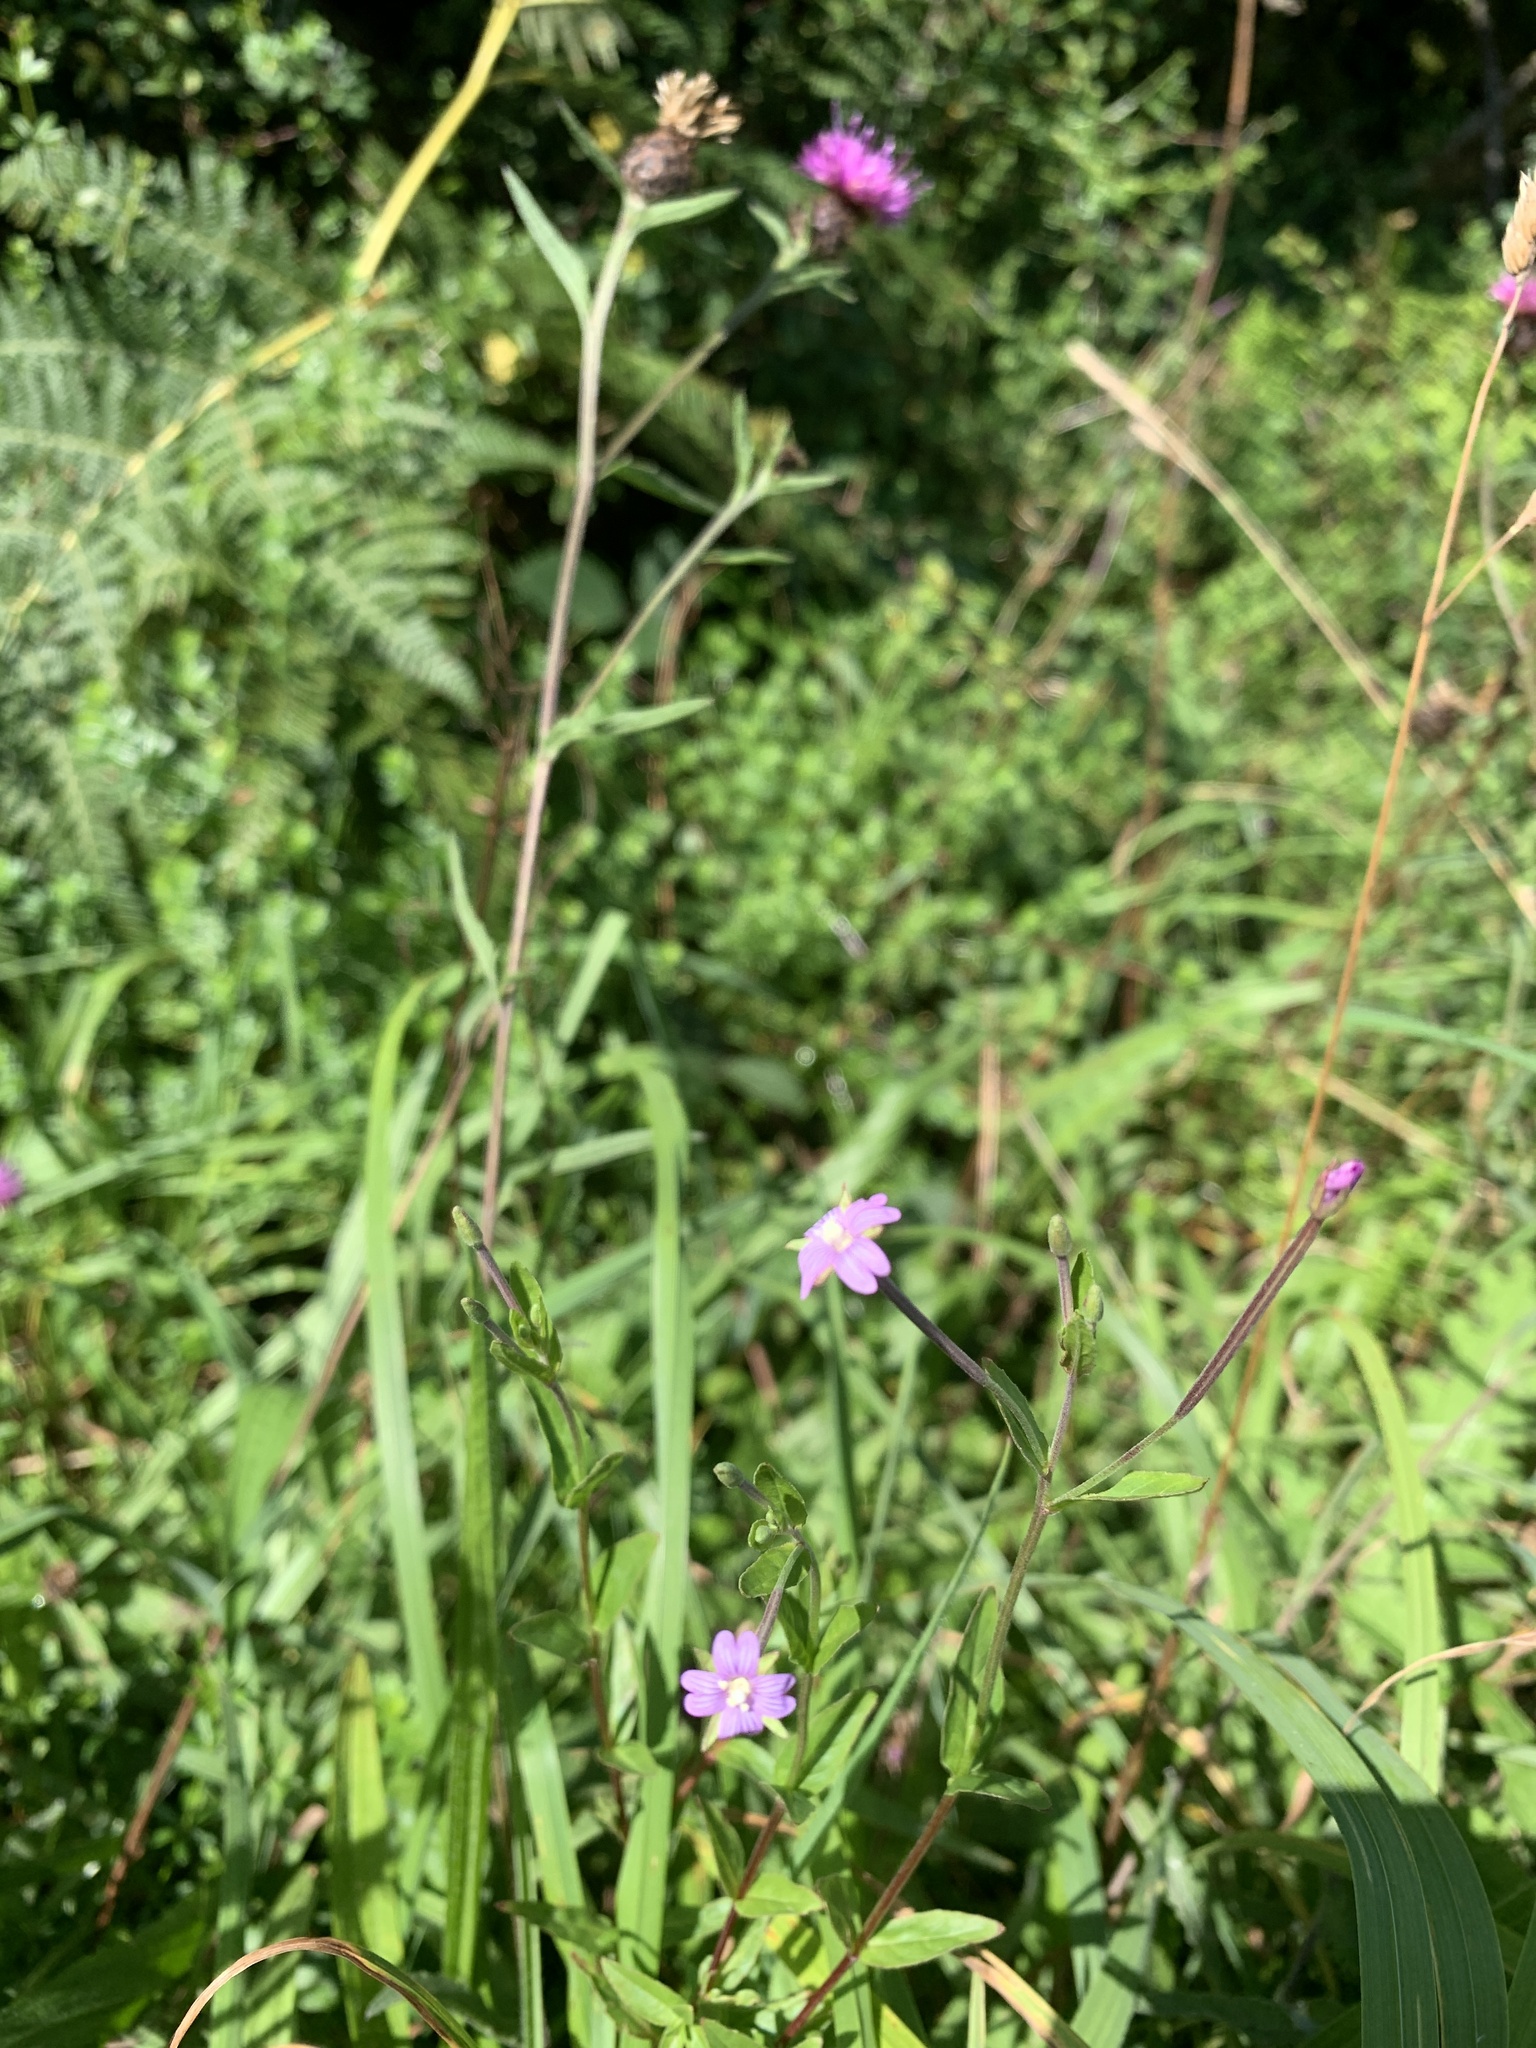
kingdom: Plantae
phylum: Tracheophyta
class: Magnoliopsida
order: Myrtales
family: Onagraceae
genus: Epilobium
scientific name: Epilobium montanum
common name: Broad-leaved willowherb
